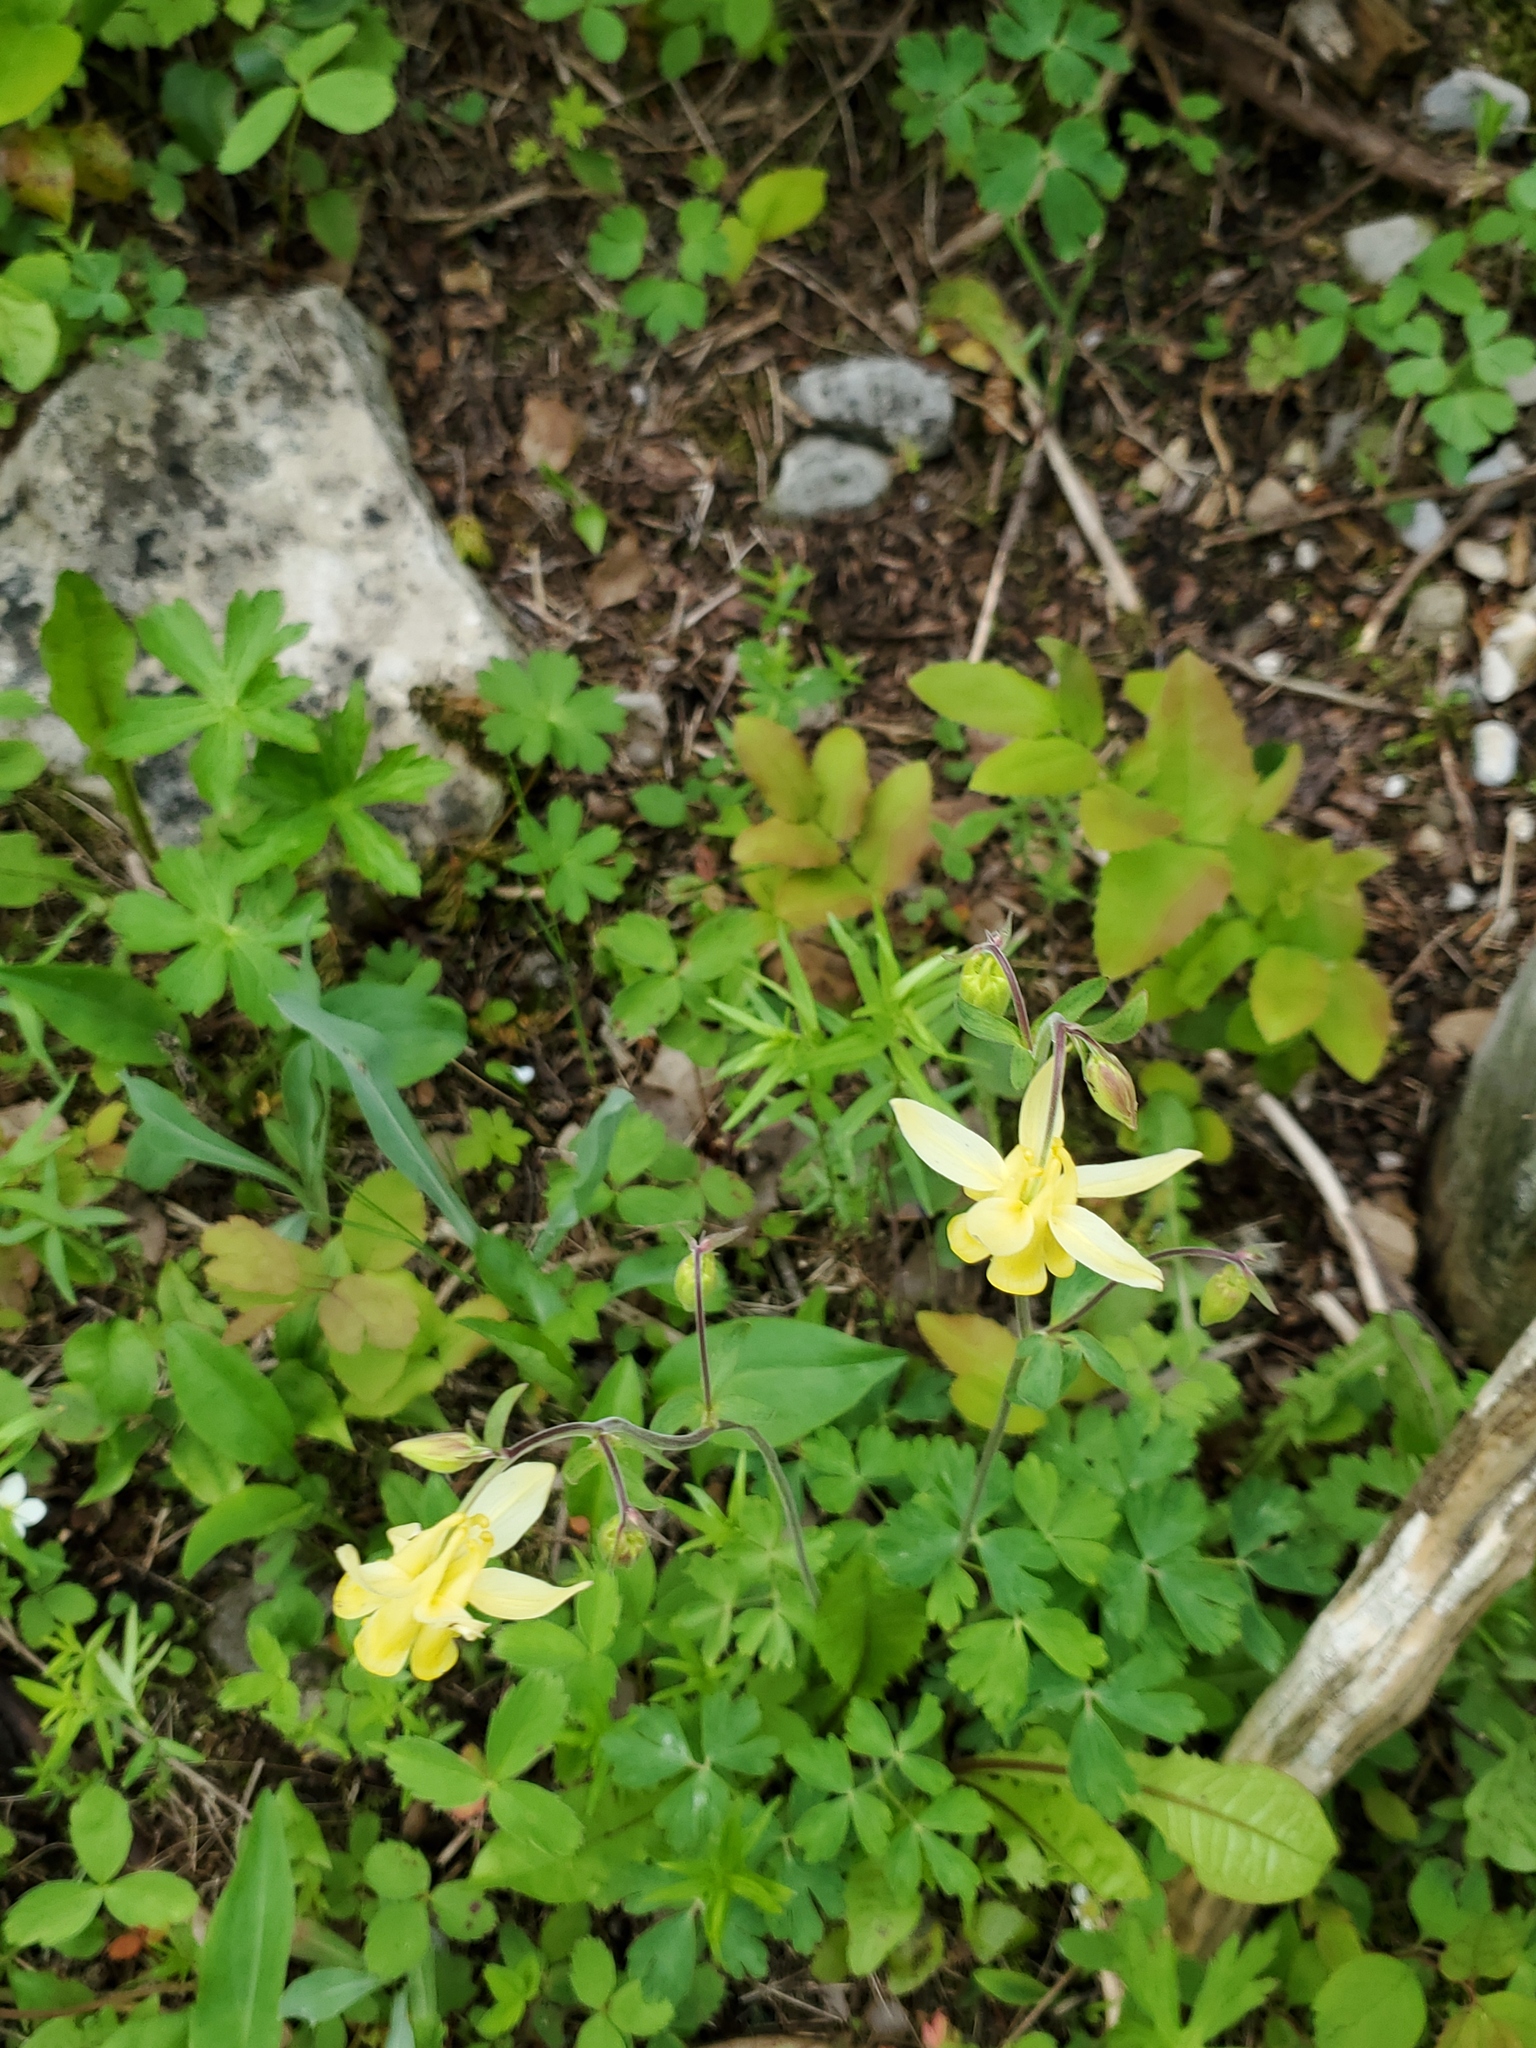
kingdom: Plantae
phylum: Tracheophyta
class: Magnoliopsida
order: Ranunculales
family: Ranunculaceae
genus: Aquilegia
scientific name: Aquilegia flavescens
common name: Yellow columbine
